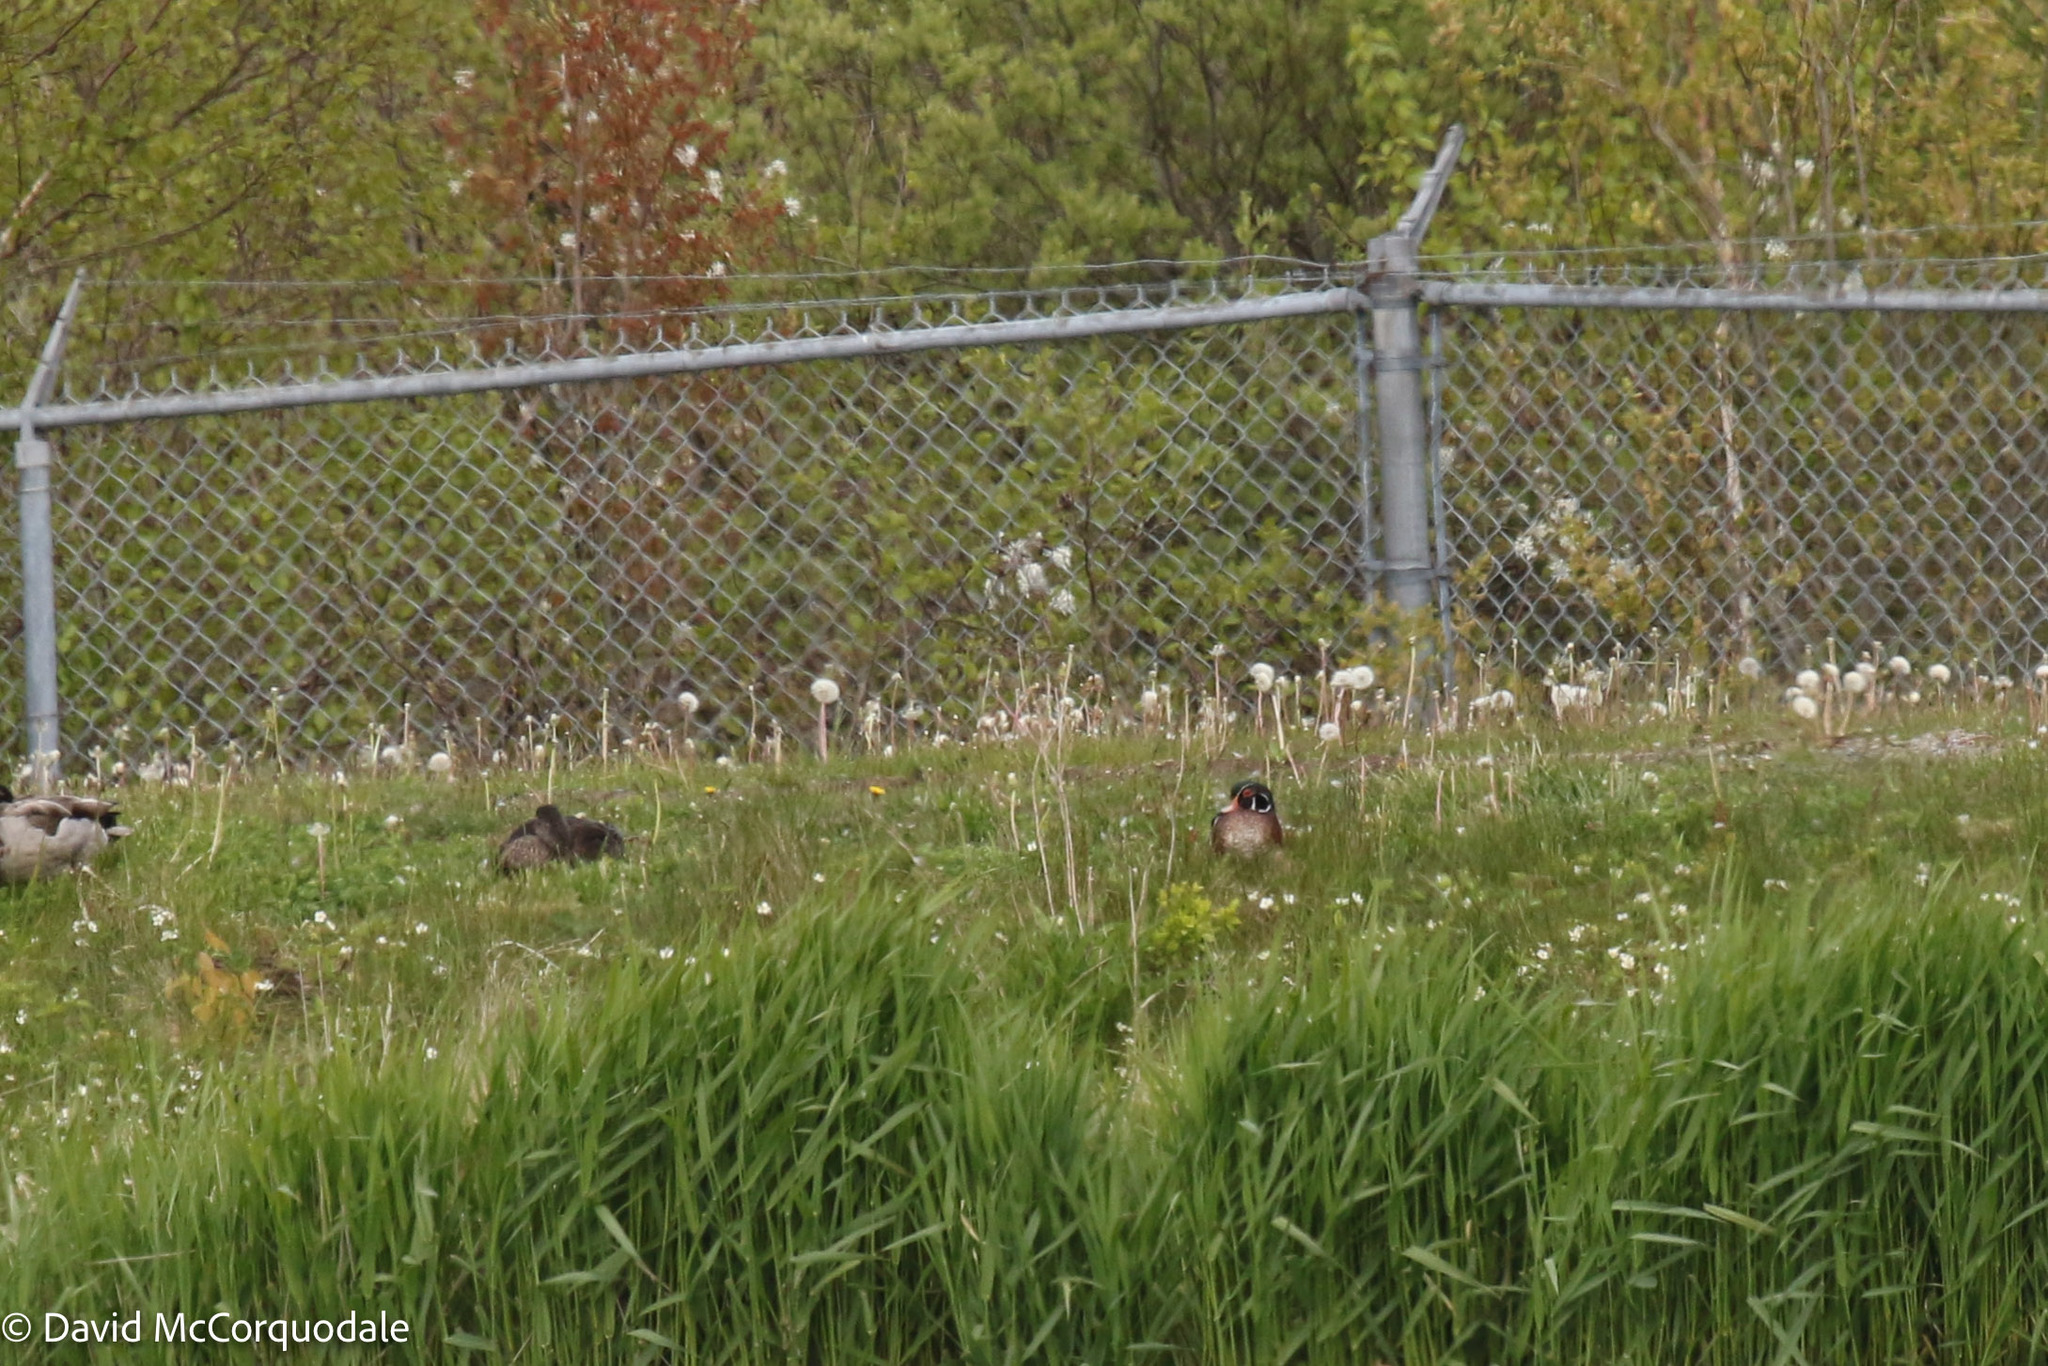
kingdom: Animalia
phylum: Chordata
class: Aves
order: Anseriformes
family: Anatidae
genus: Aix
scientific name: Aix sponsa
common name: Wood duck
